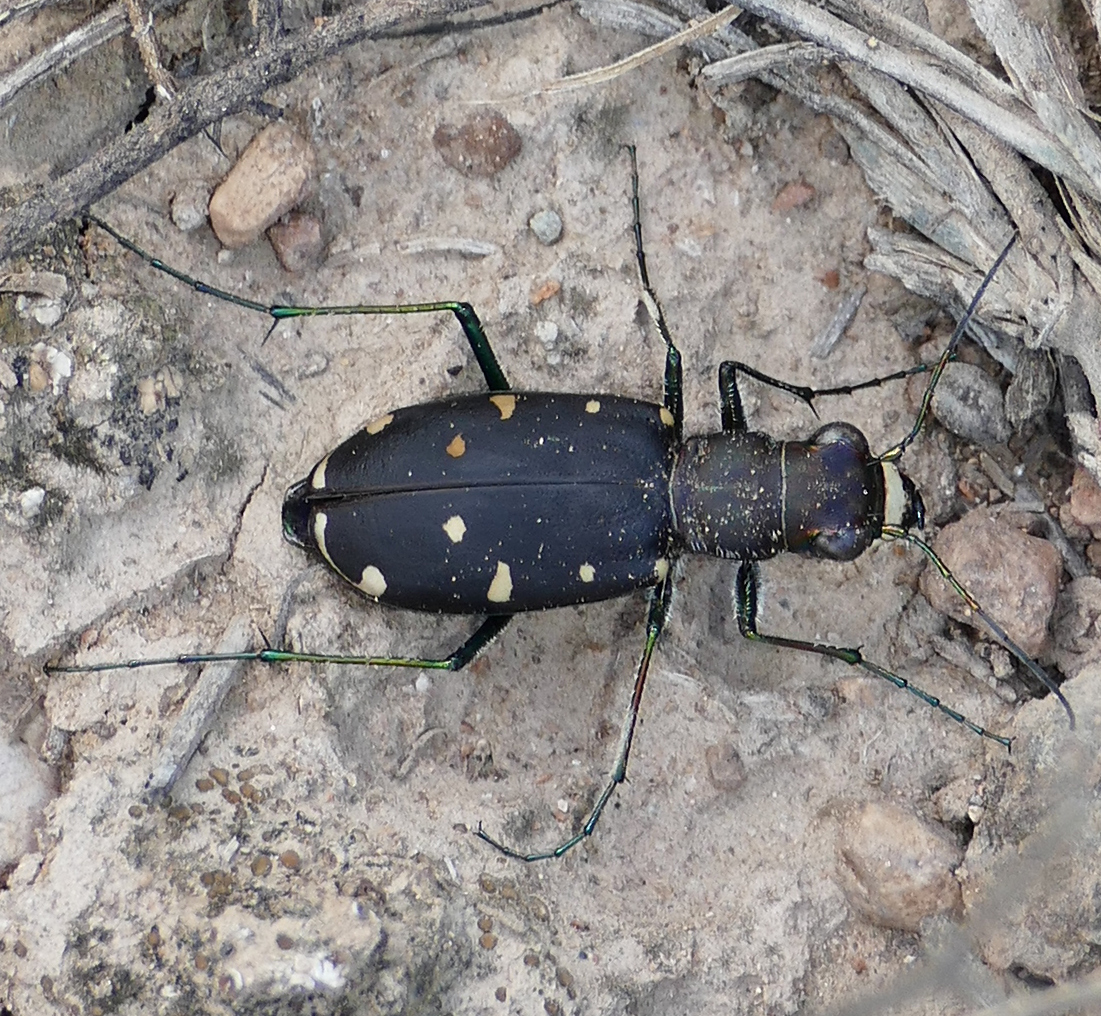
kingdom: Animalia
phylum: Arthropoda
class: Insecta
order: Coleoptera
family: Carabidae
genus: Cicindela
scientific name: Cicindela obsoleta
